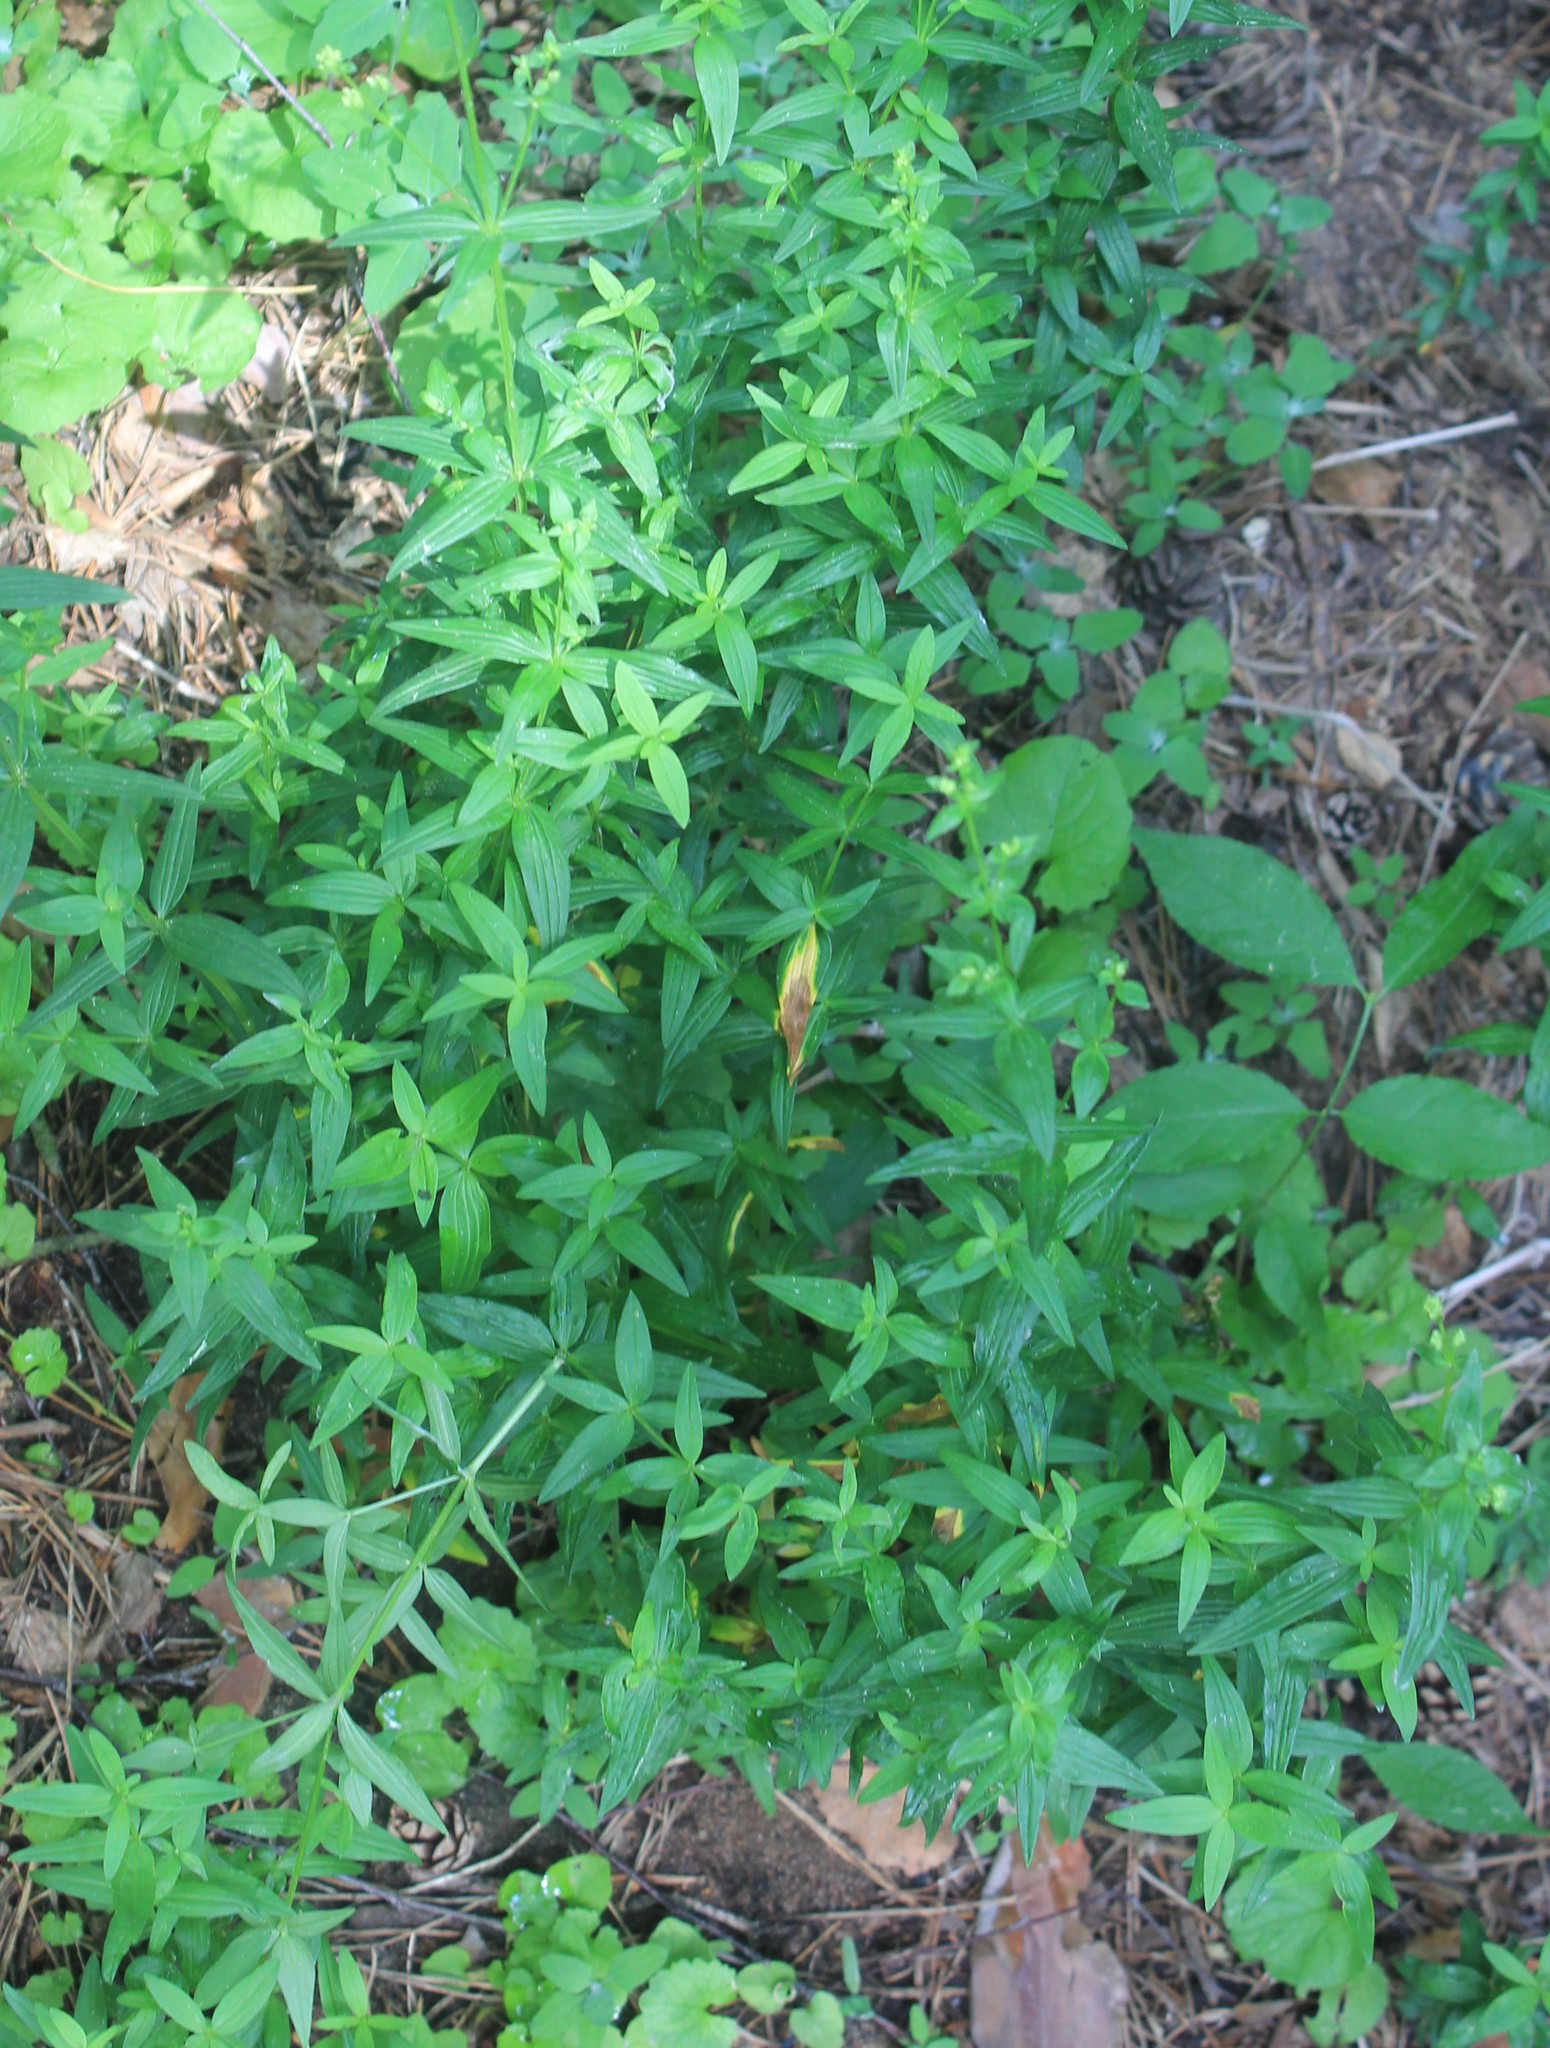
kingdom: Plantae
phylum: Tracheophyta
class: Magnoliopsida
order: Gentianales
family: Rubiaceae
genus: Galium
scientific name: Galium boreale
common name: Northern bedstraw
